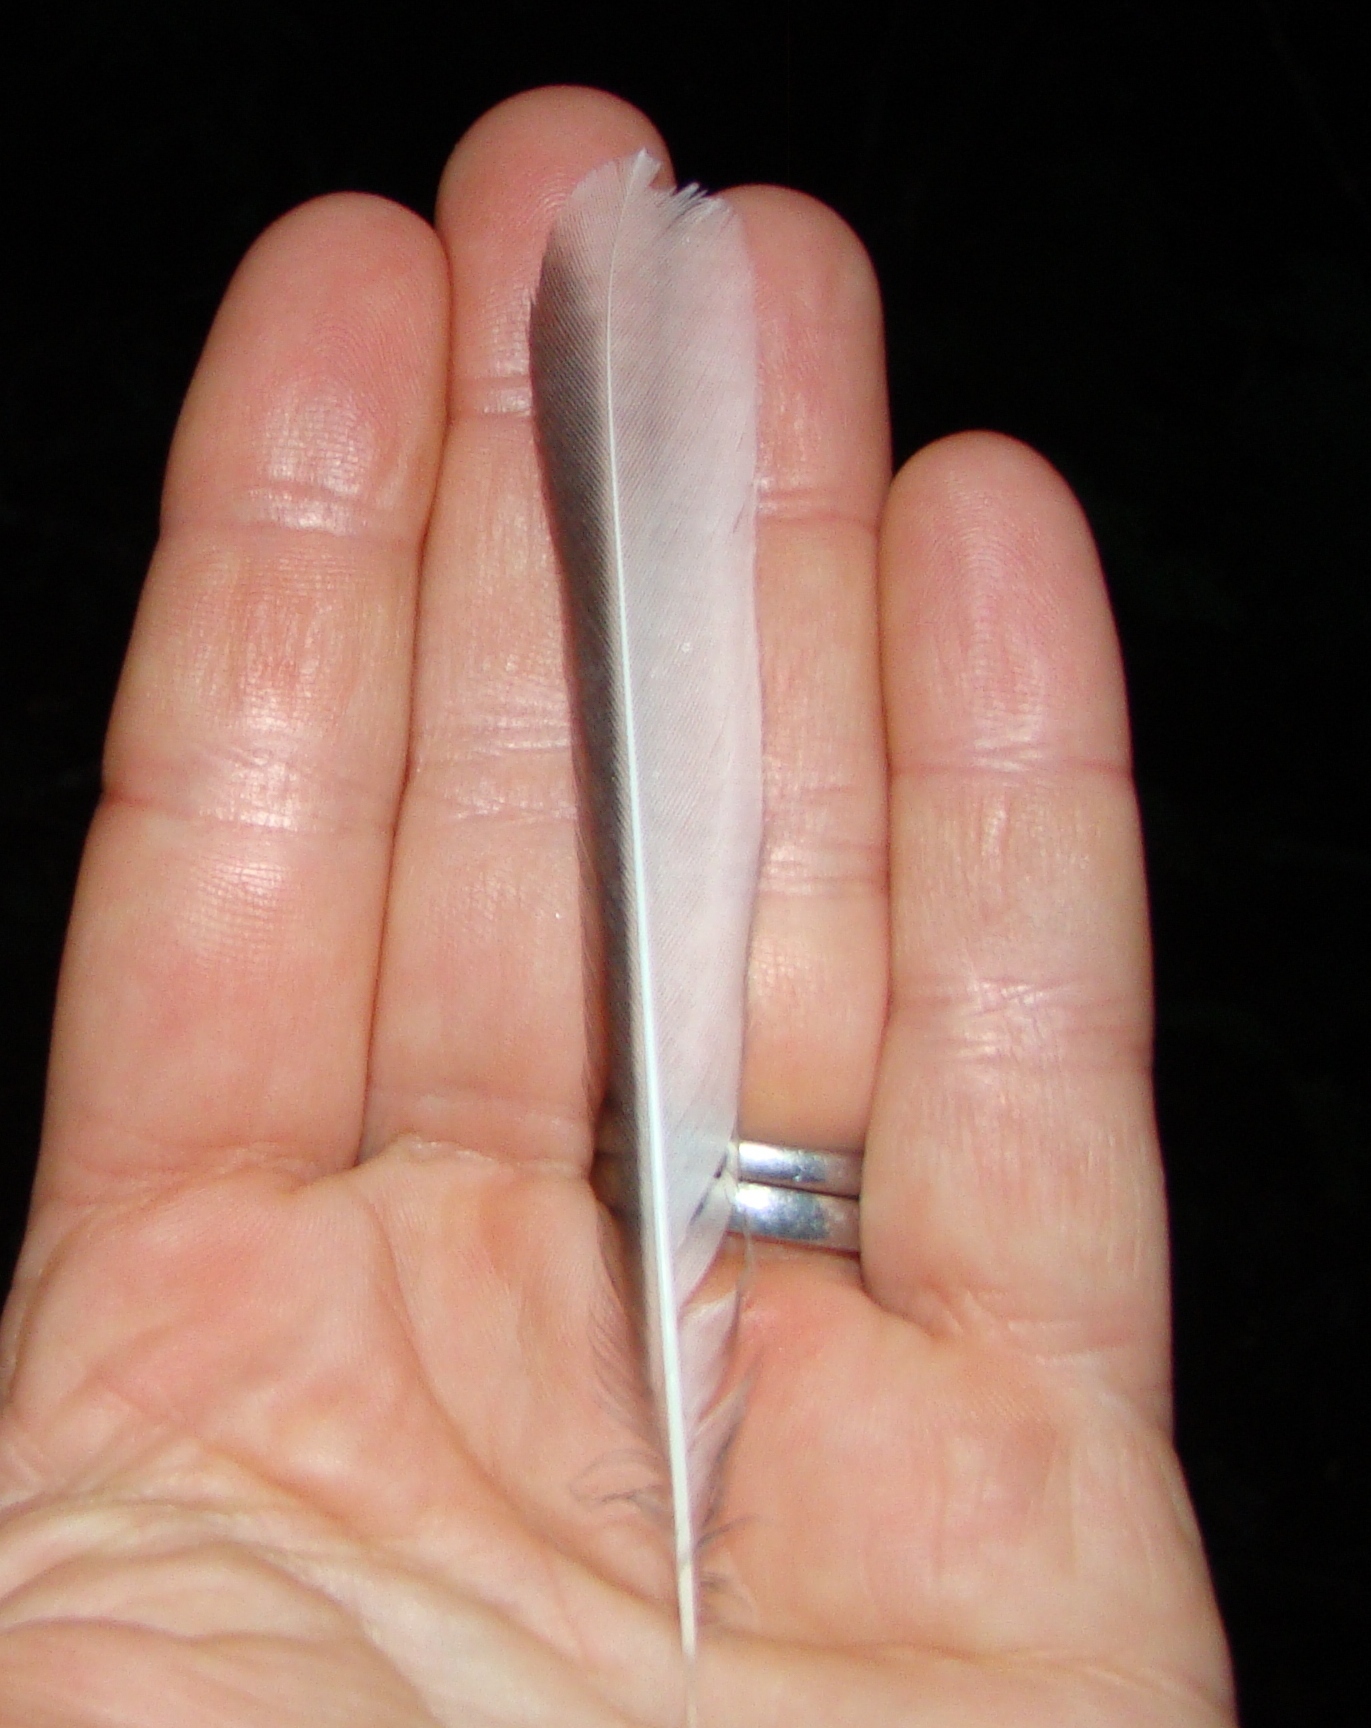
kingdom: Animalia
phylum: Chordata
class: Aves
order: Passeriformes
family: Rhipiduridae
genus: Rhipidura
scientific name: Rhipidura fuliginosa
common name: New zealand fantail
